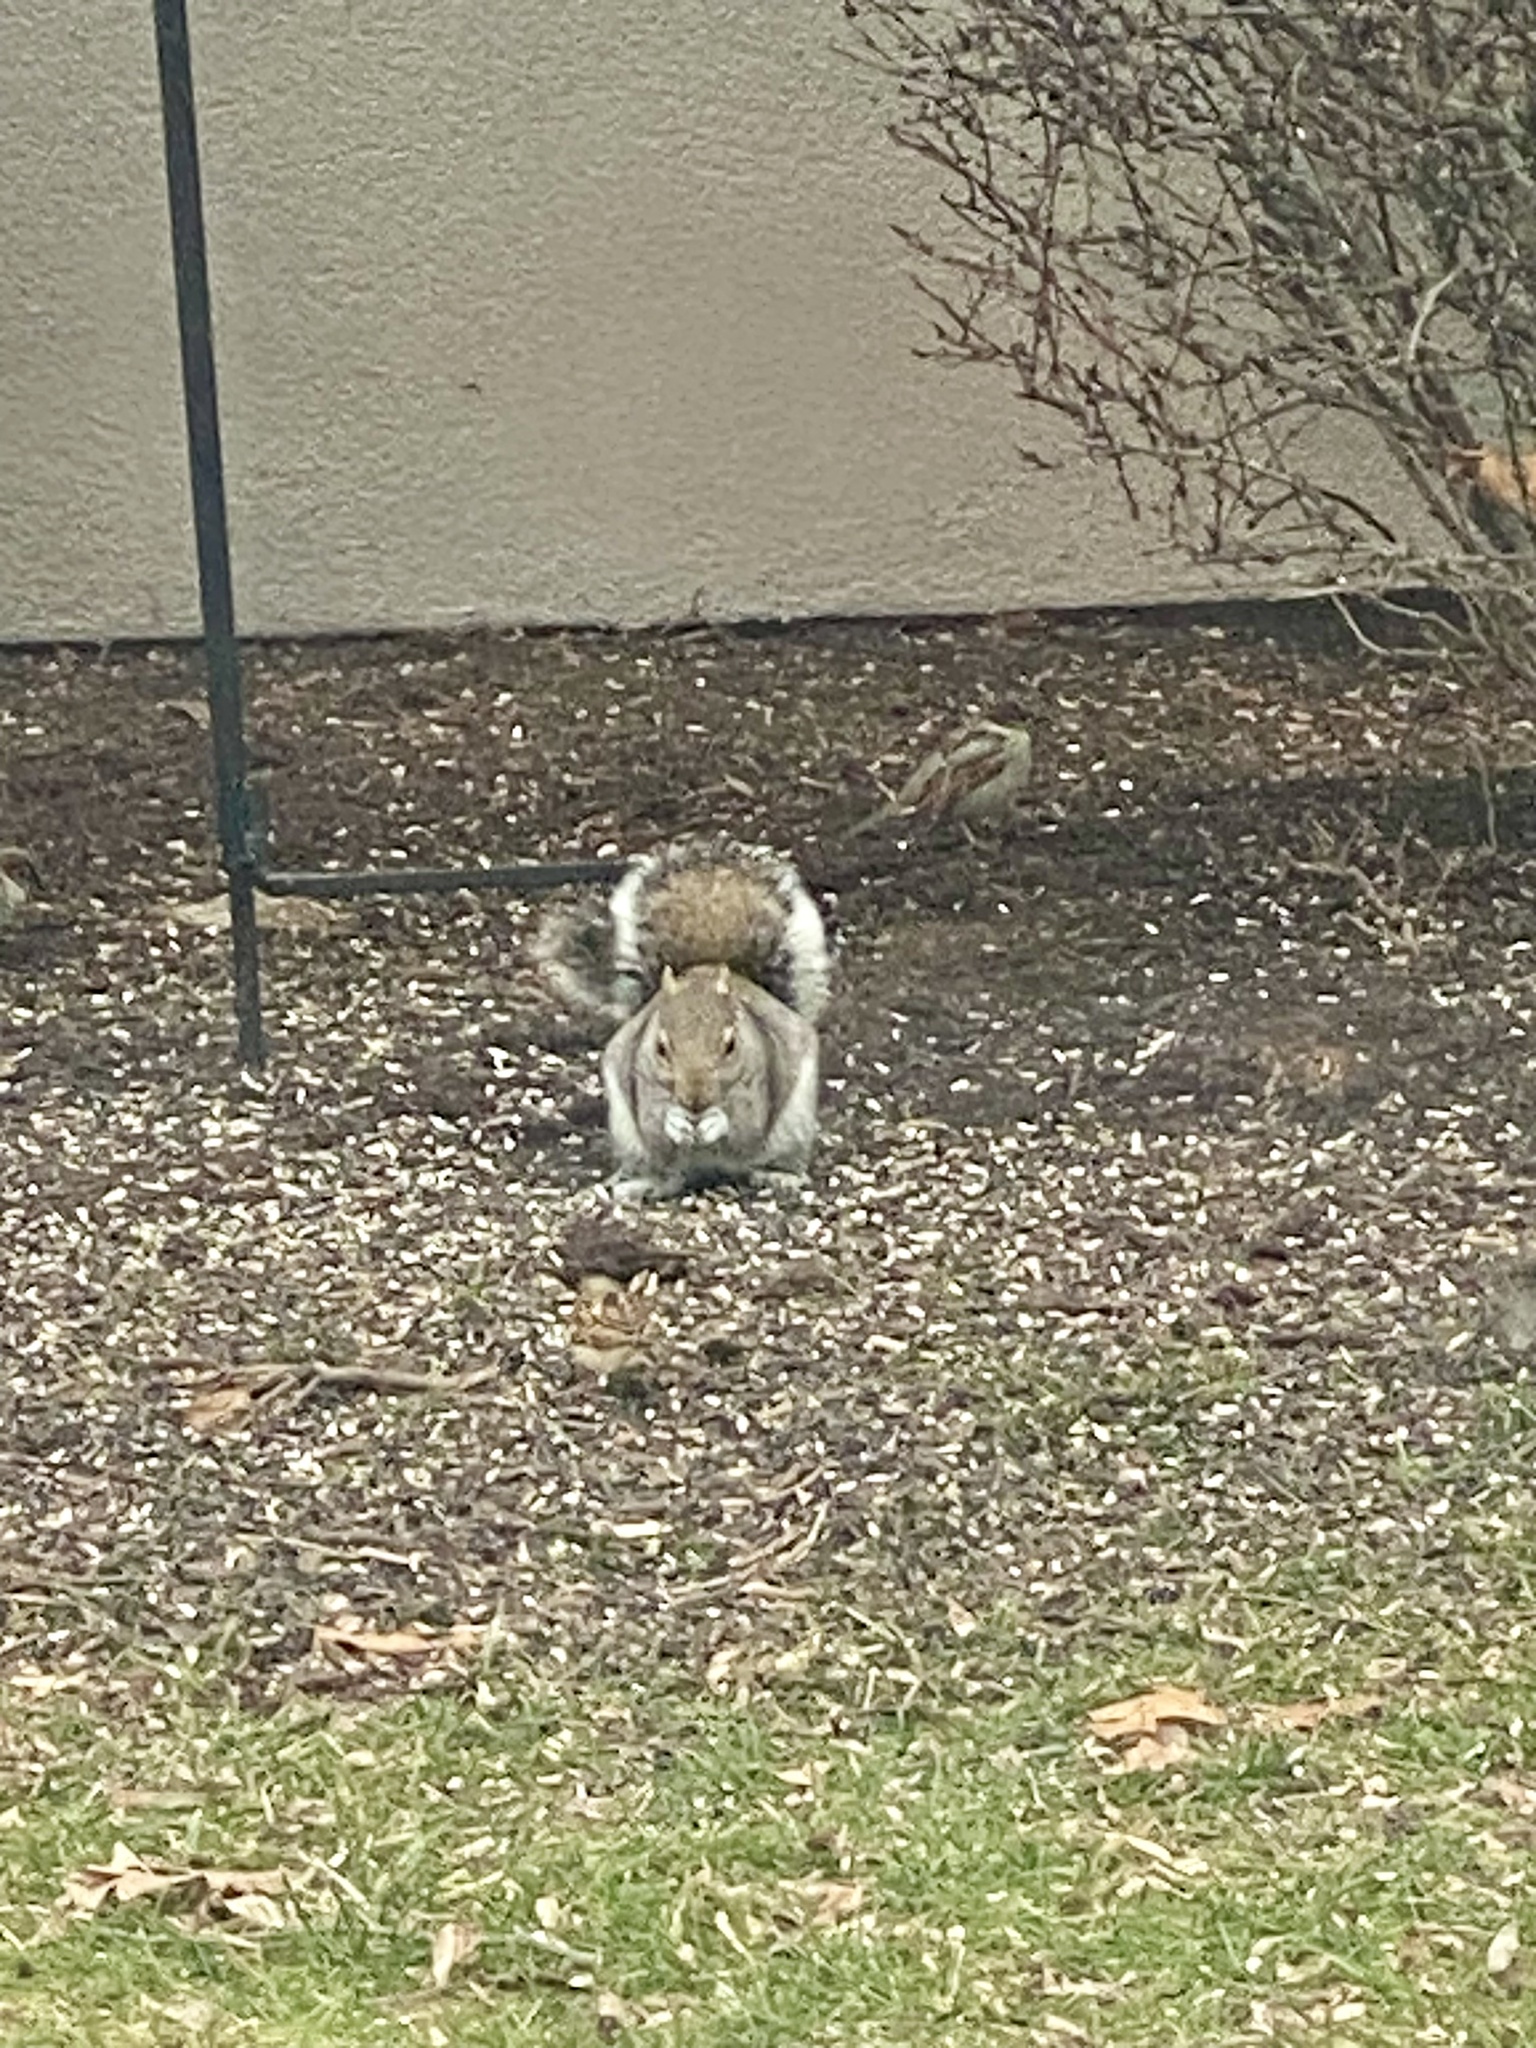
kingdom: Animalia
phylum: Chordata
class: Mammalia
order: Rodentia
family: Sciuridae
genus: Sciurus
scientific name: Sciurus carolinensis
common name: Eastern gray squirrel
